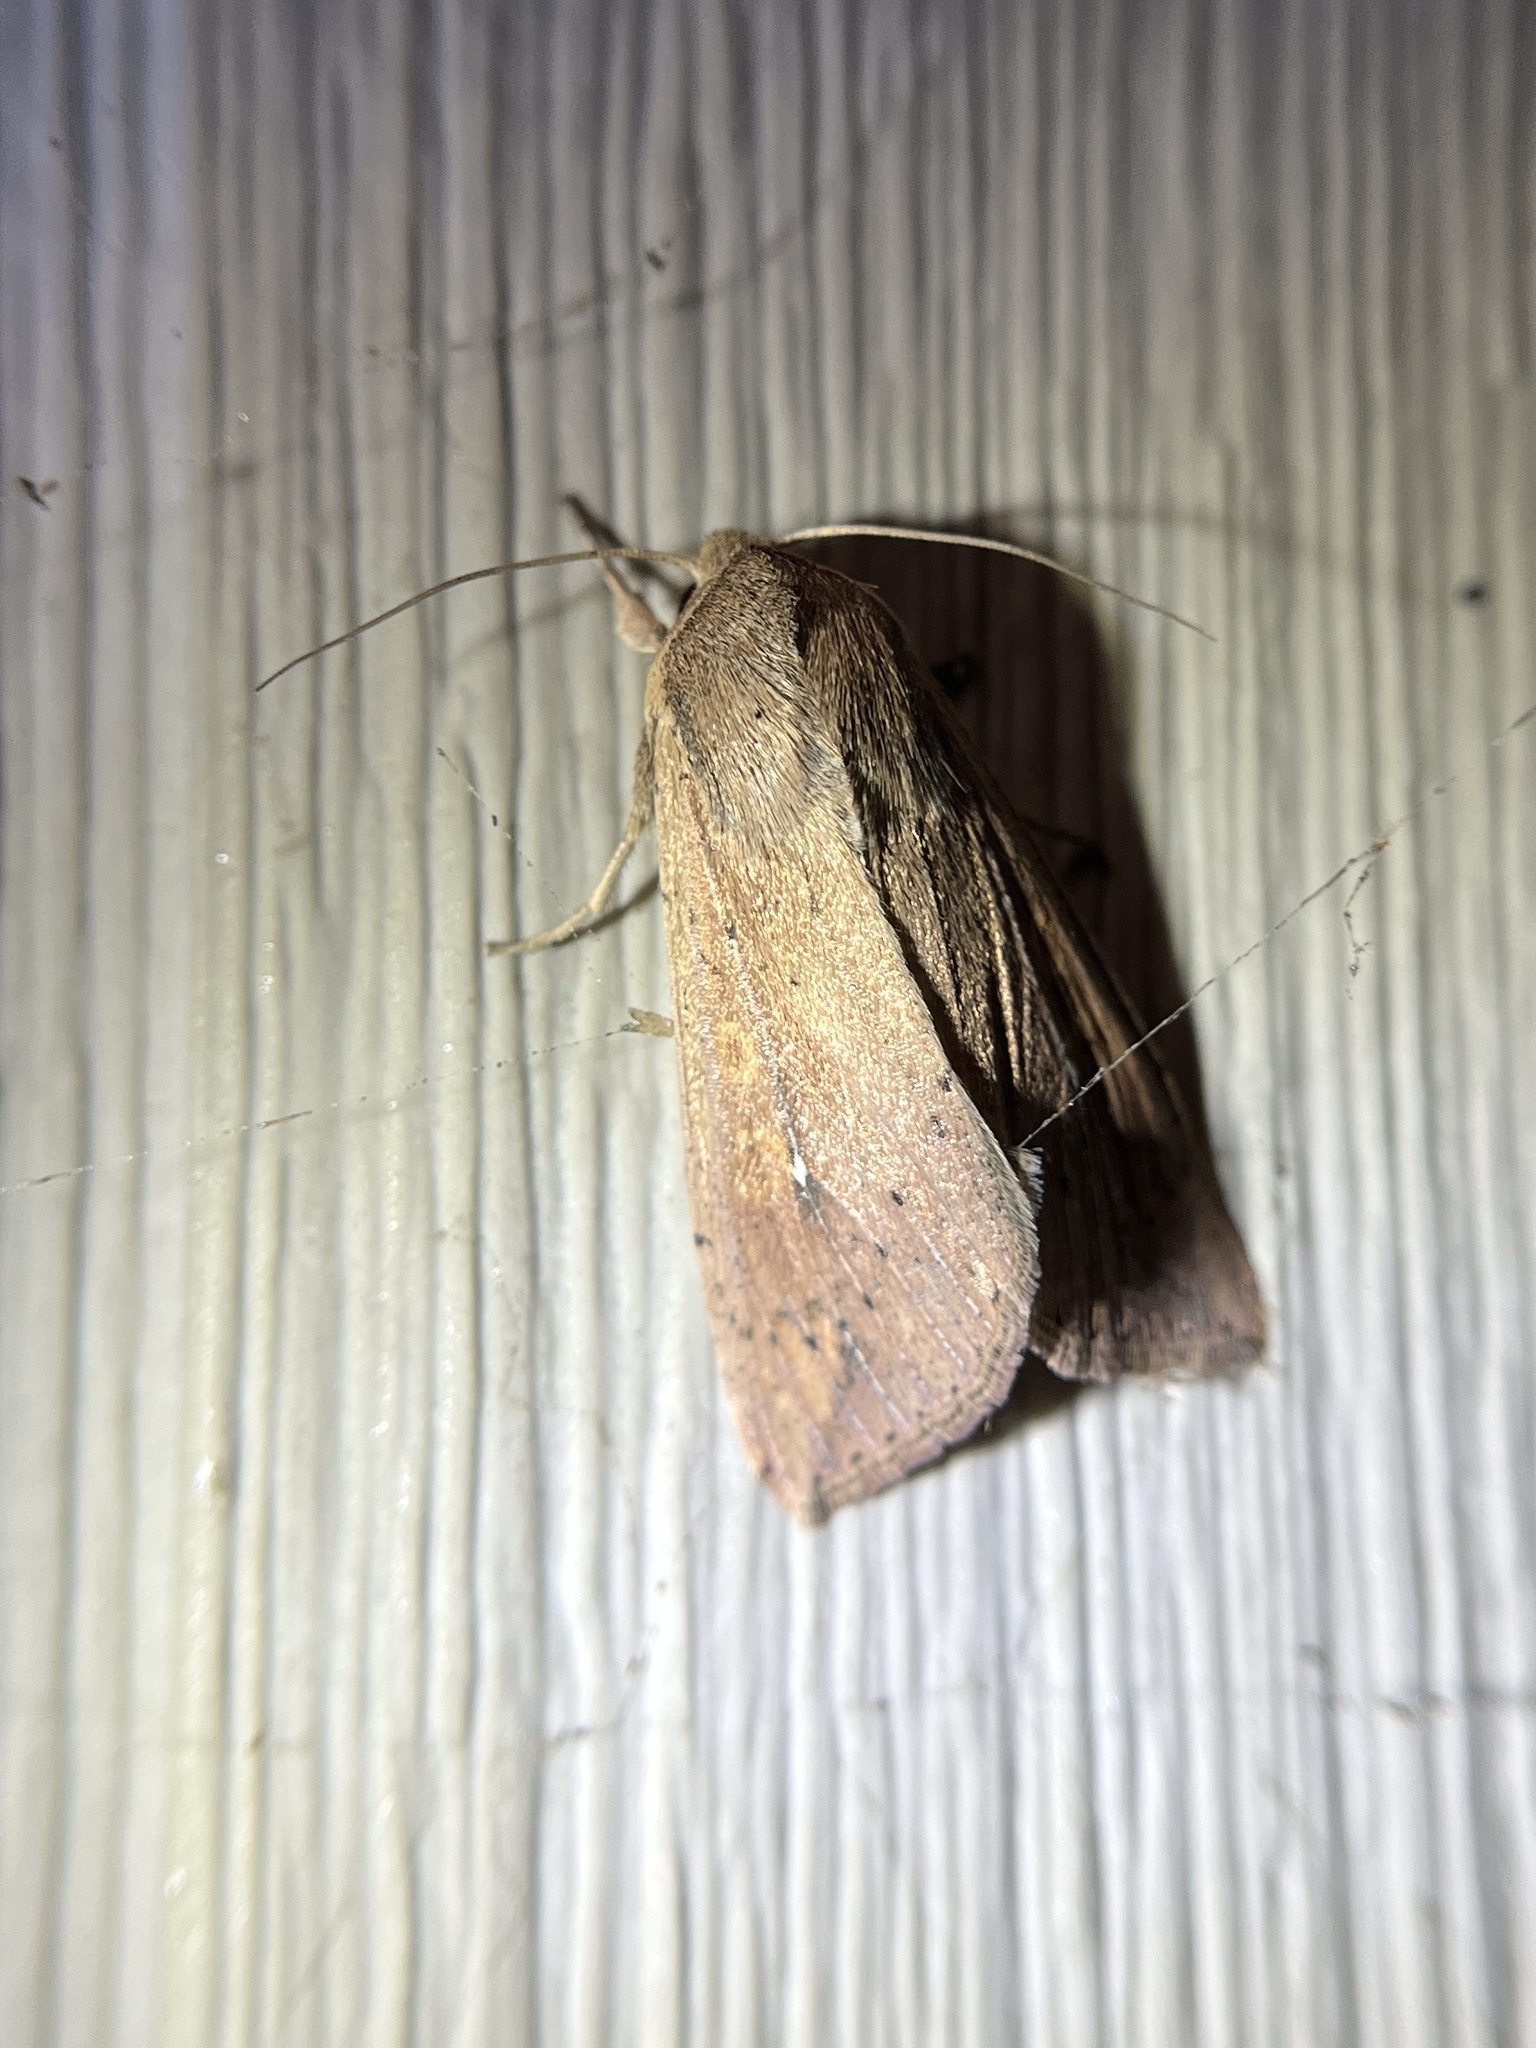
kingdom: Animalia
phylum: Arthropoda
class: Insecta
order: Lepidoptera
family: Noctuidae
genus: Mythimna
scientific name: Mythimna unipuncta
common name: White-speck
